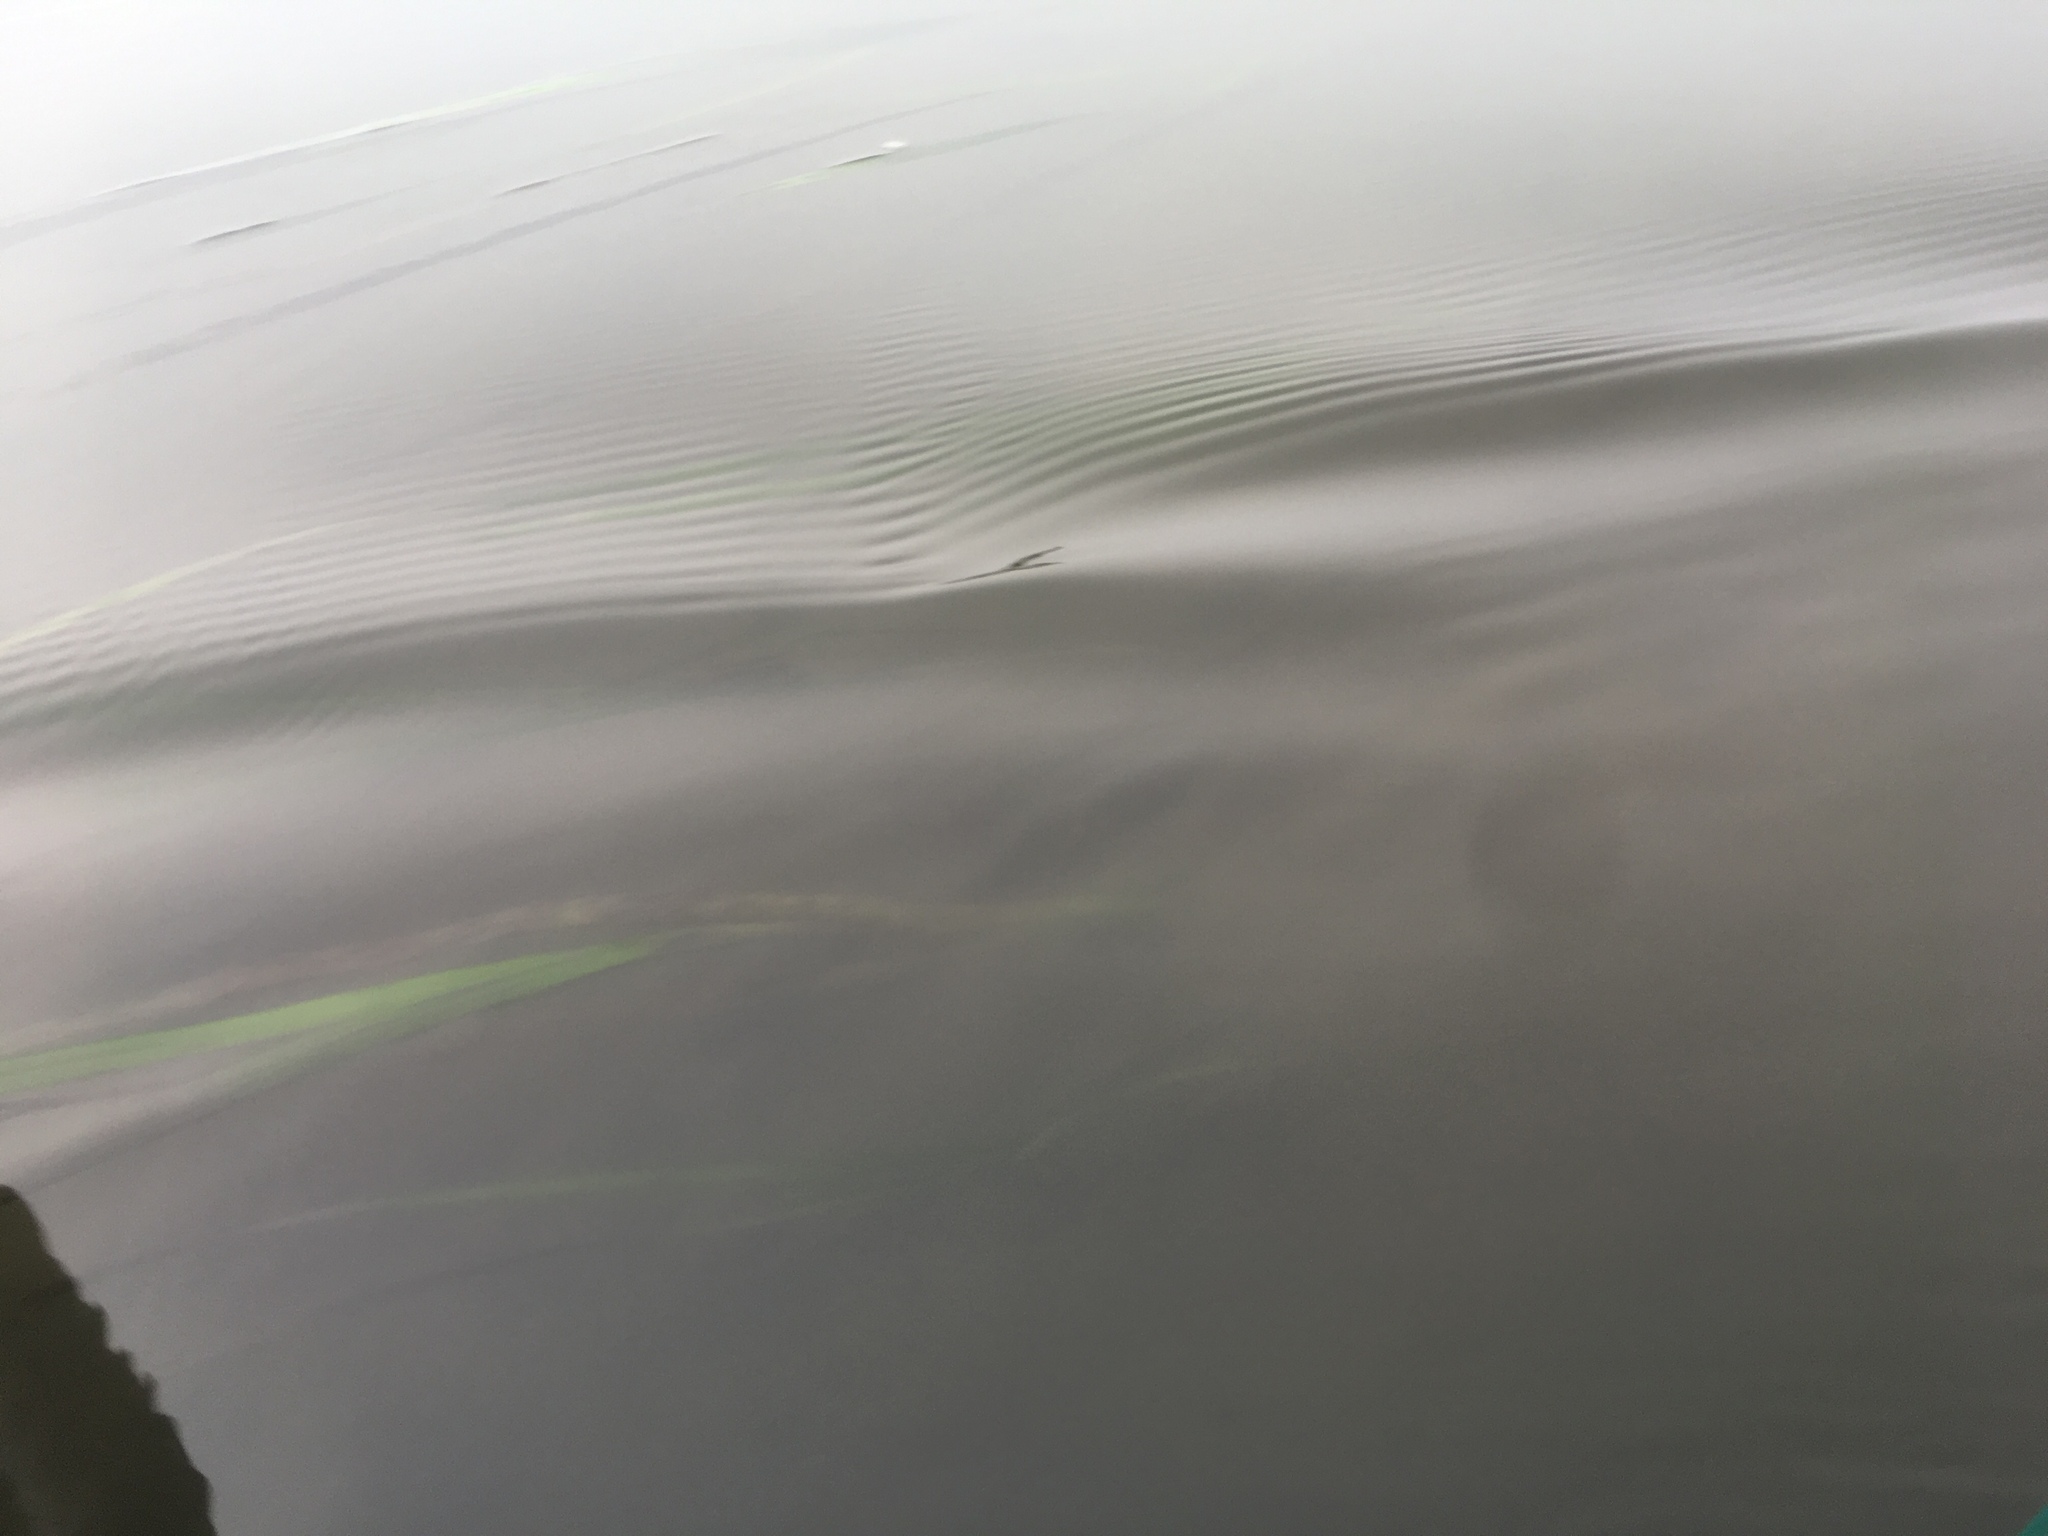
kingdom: Plantae
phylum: Tracheophyta
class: Liliopsida
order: Alismatales
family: Zosteraceae
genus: Zostera
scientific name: Zostera marina
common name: Eelgrass
